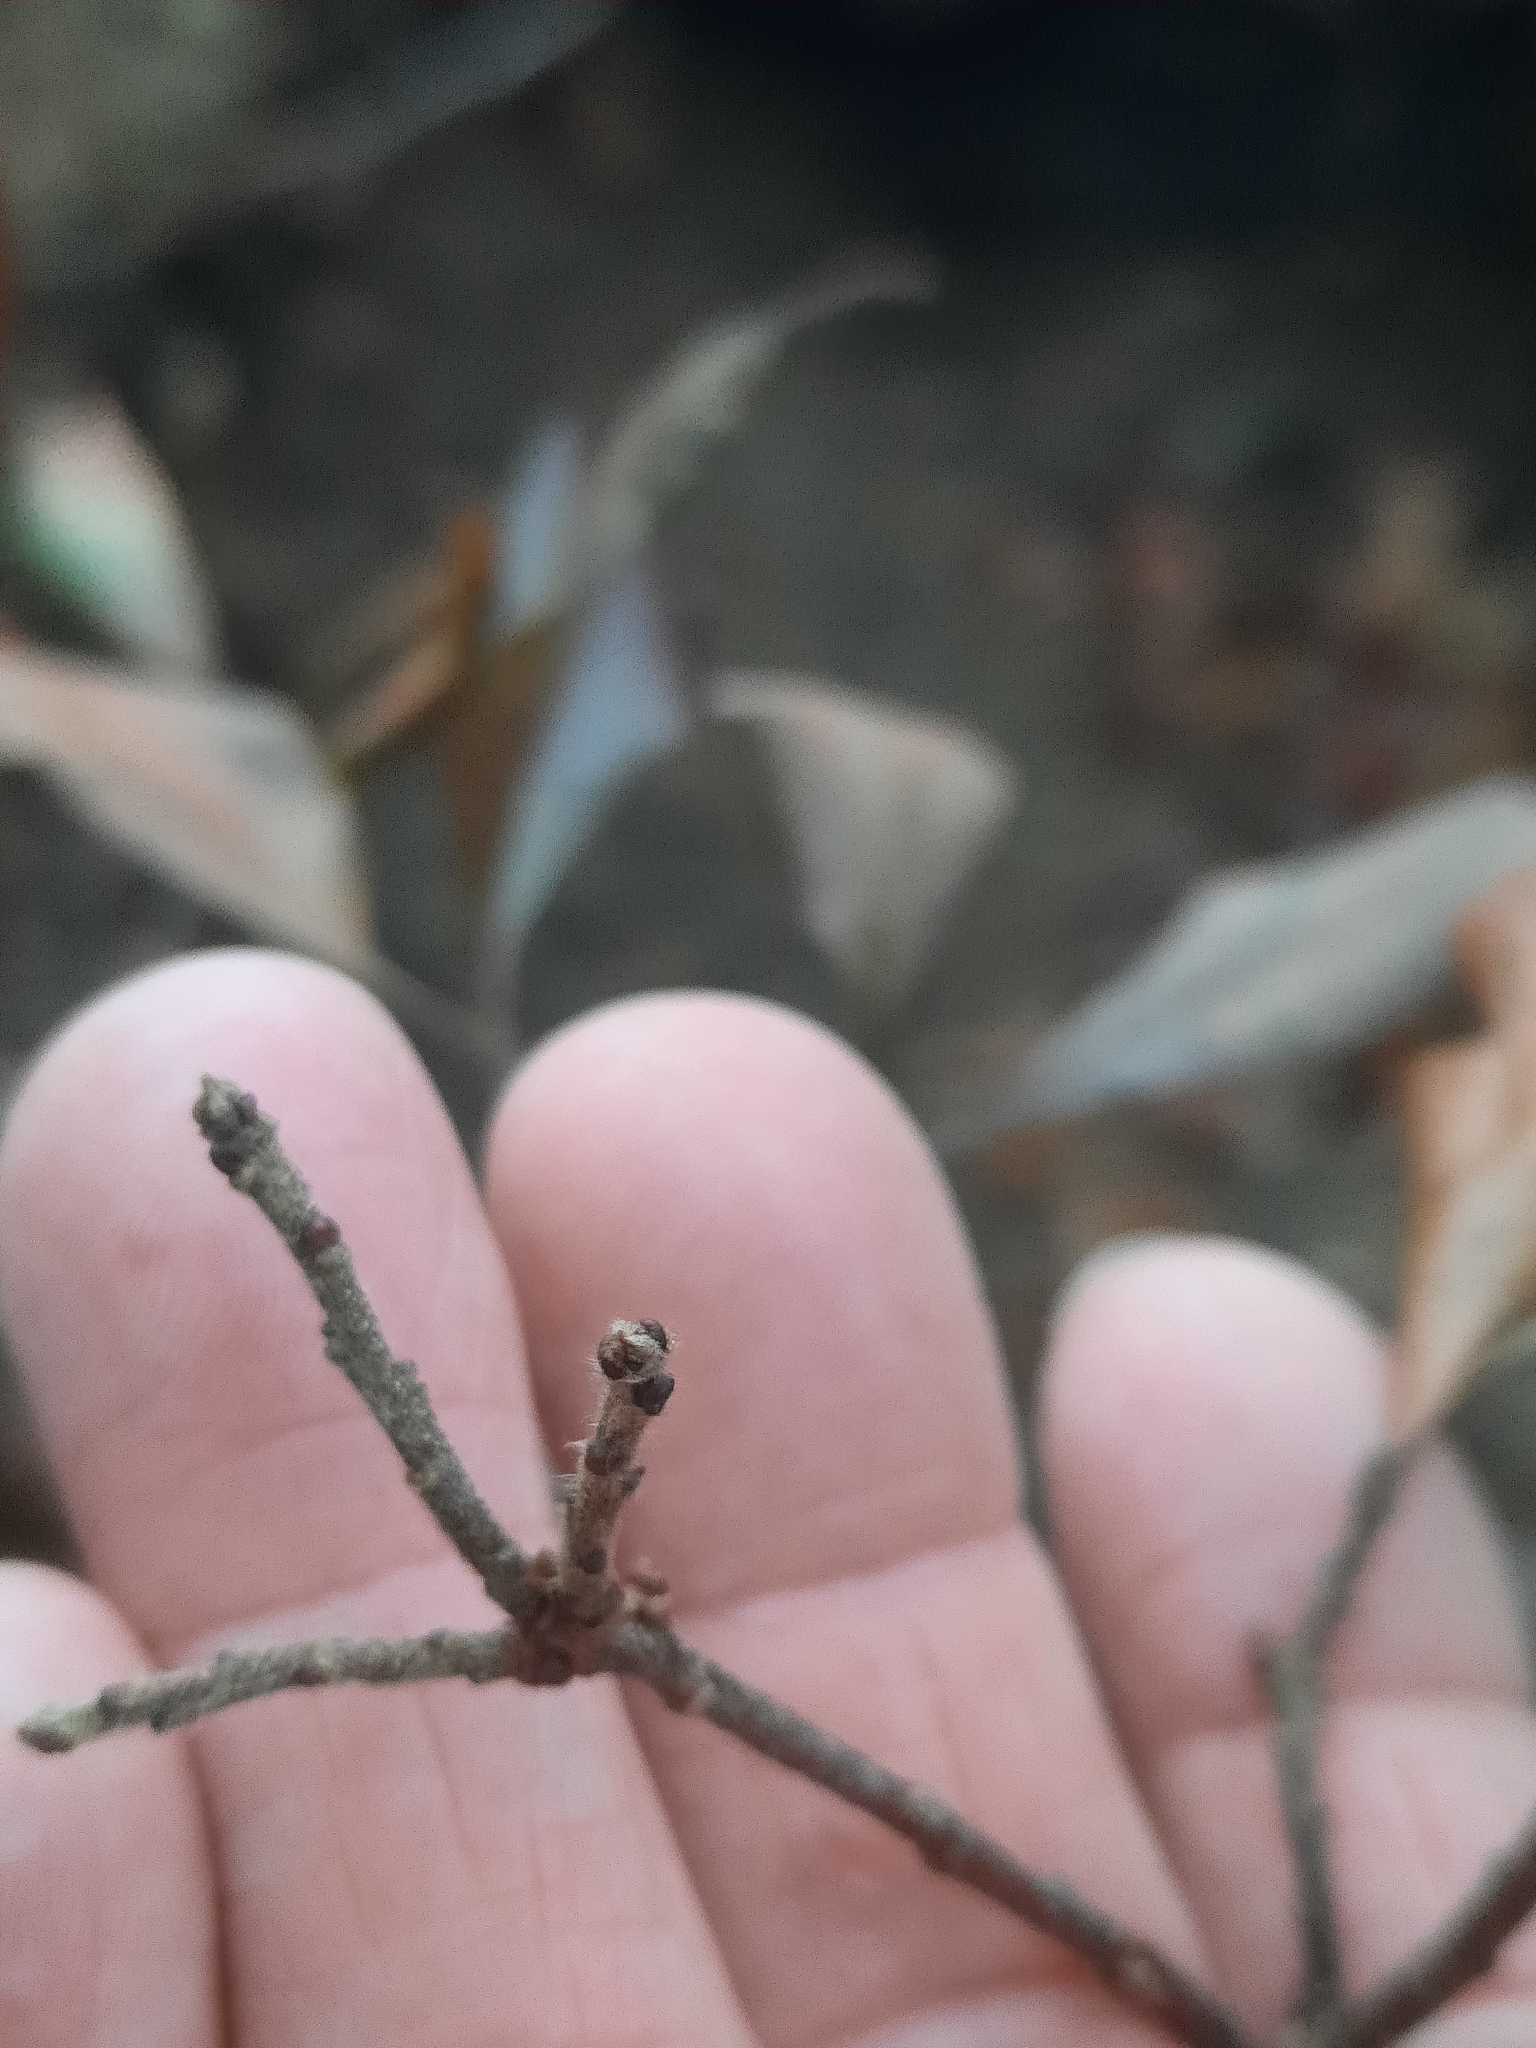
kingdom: Plantae
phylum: Tracheophyta
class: Magnoliopsida
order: Fagales
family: Myricaceae
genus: Morella
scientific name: Morella pensylvanica
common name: Northern bayberry
